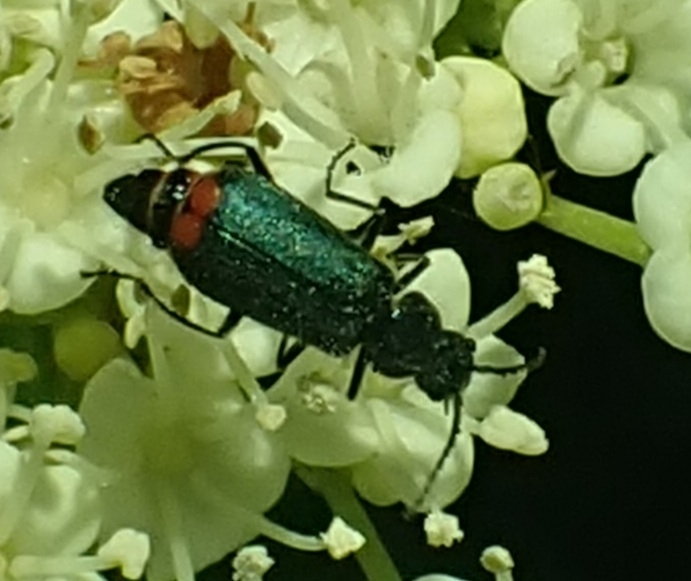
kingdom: Animalia
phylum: Arthropoda
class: Insecta
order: Coleoptera
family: Melyridae
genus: Malachius
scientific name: Malachius bipustulatus
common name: Malachite beetle
